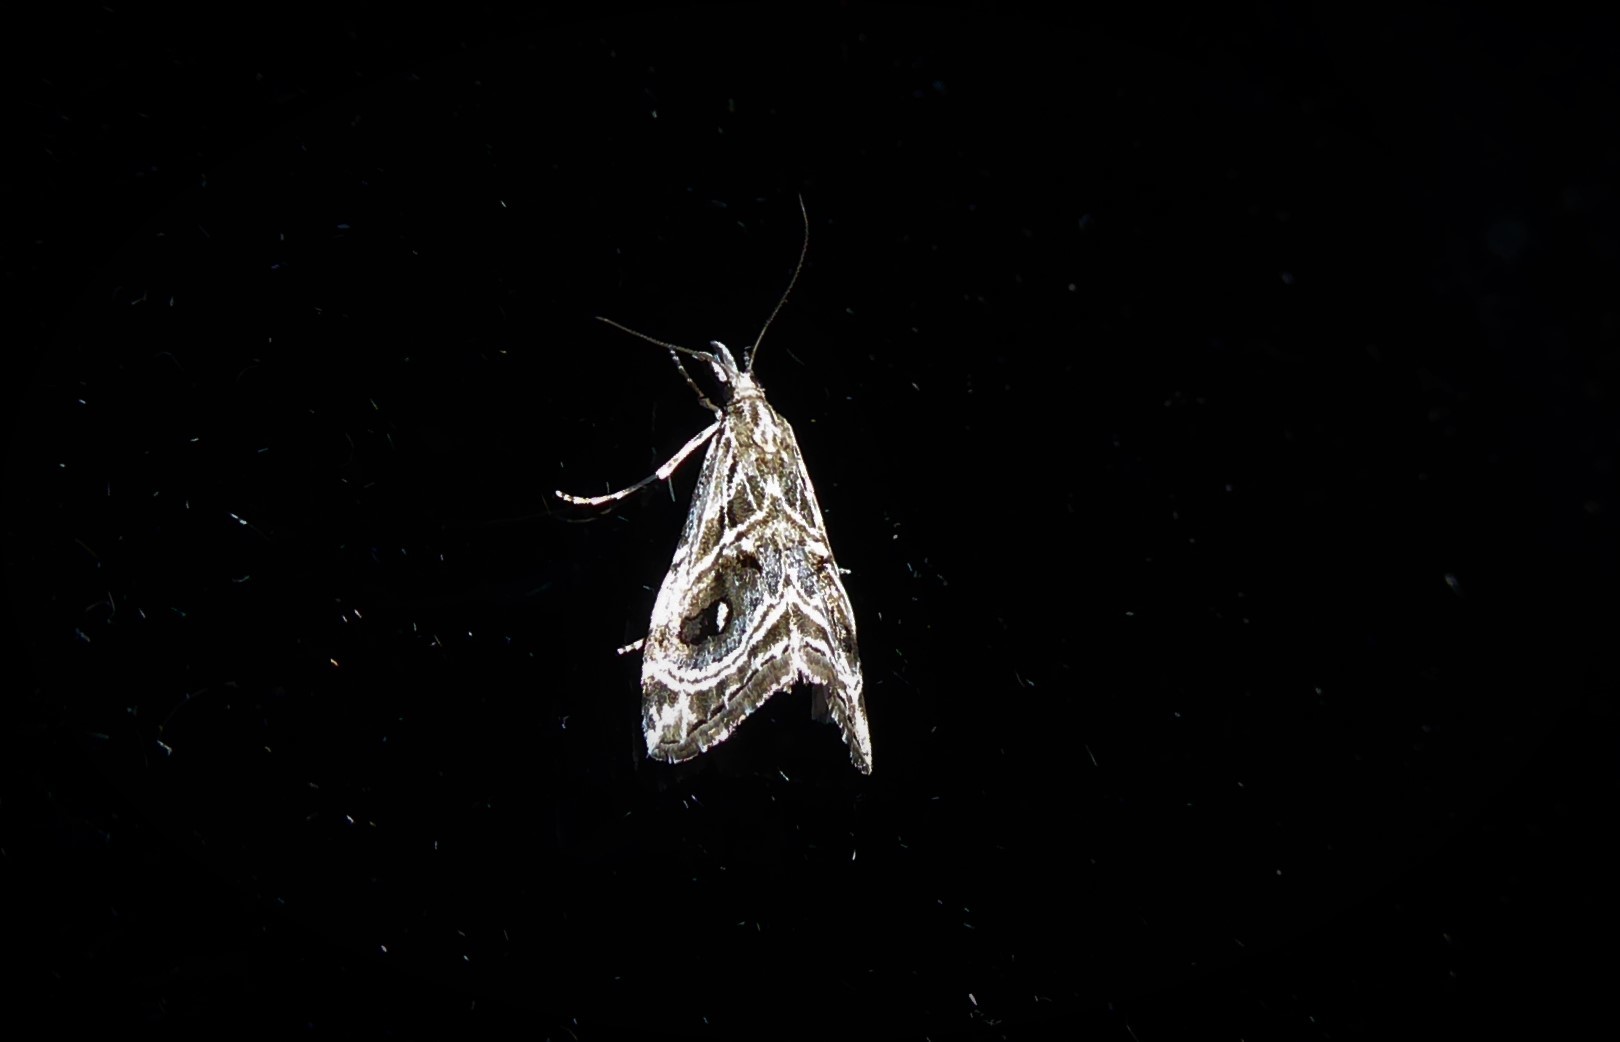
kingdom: Animalia
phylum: Arthropoda
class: Insecta
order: Lepidoptera
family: Crambidae
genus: Gadira
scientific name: Gadira acerella
